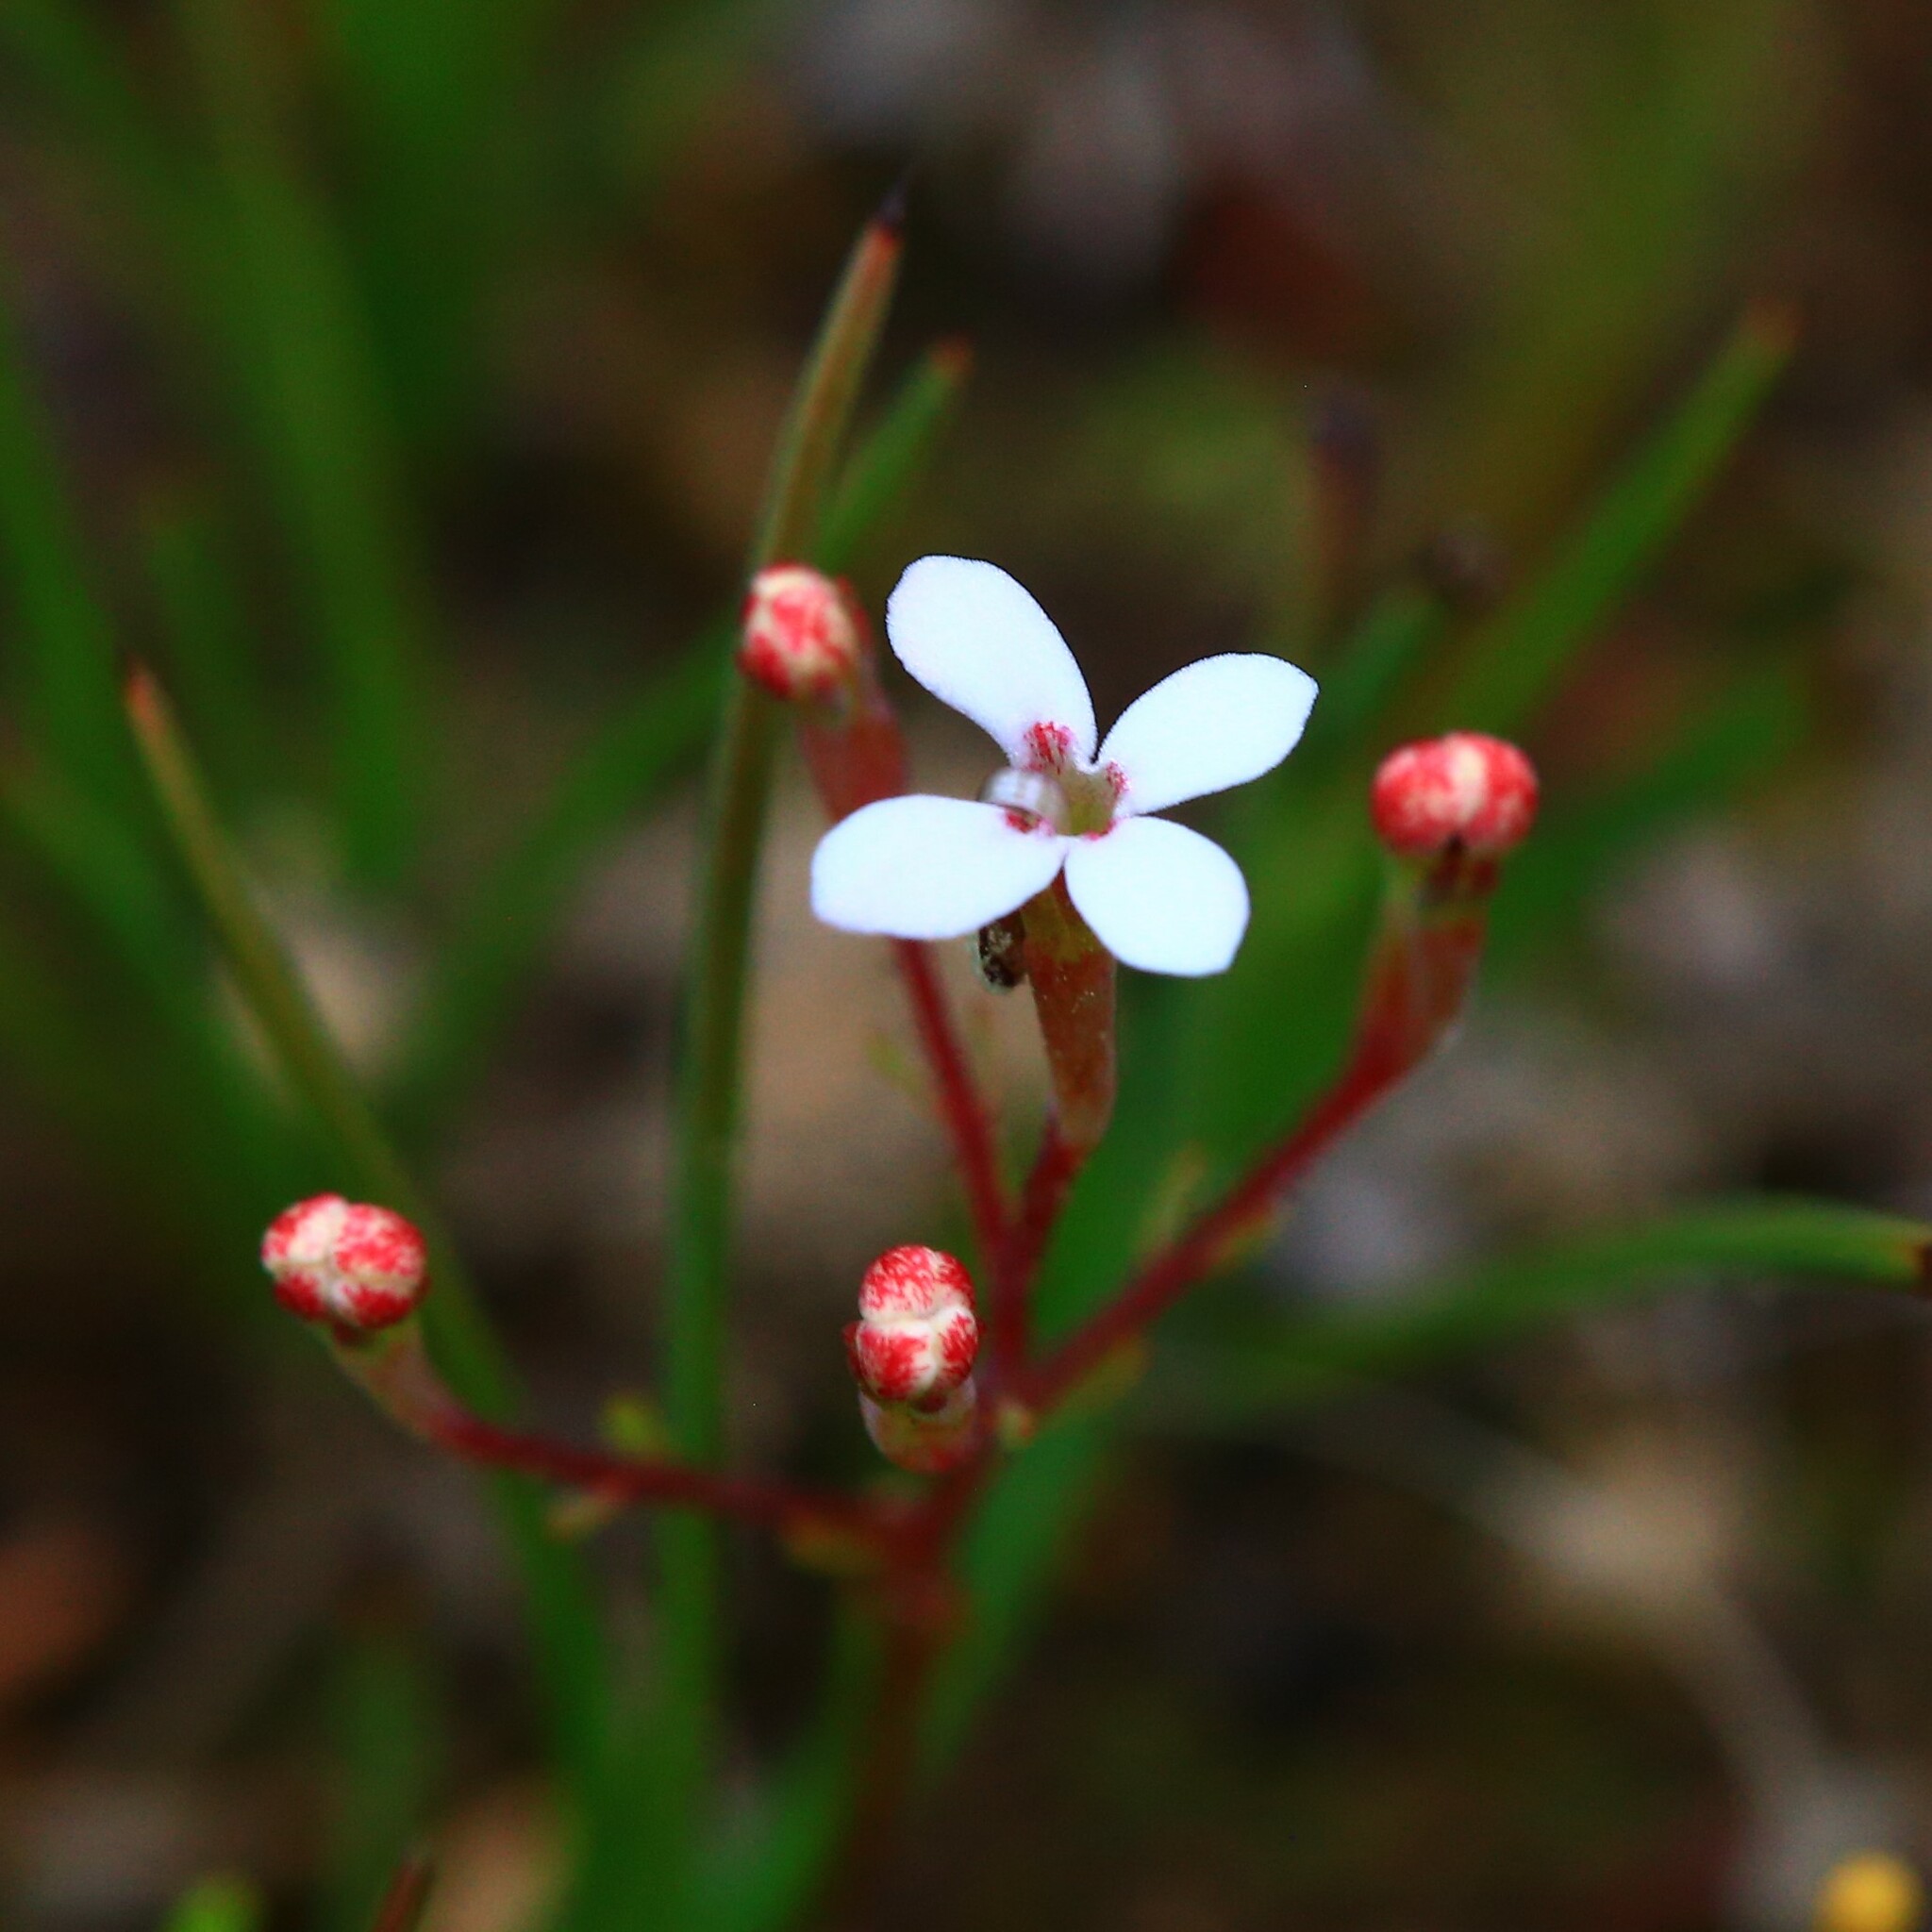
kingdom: Plantae
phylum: Tracheophyta
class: Magnoliopsida
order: Asterales
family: Stylidiaceae
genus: Stylidium
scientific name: Stylidium pulchellum
